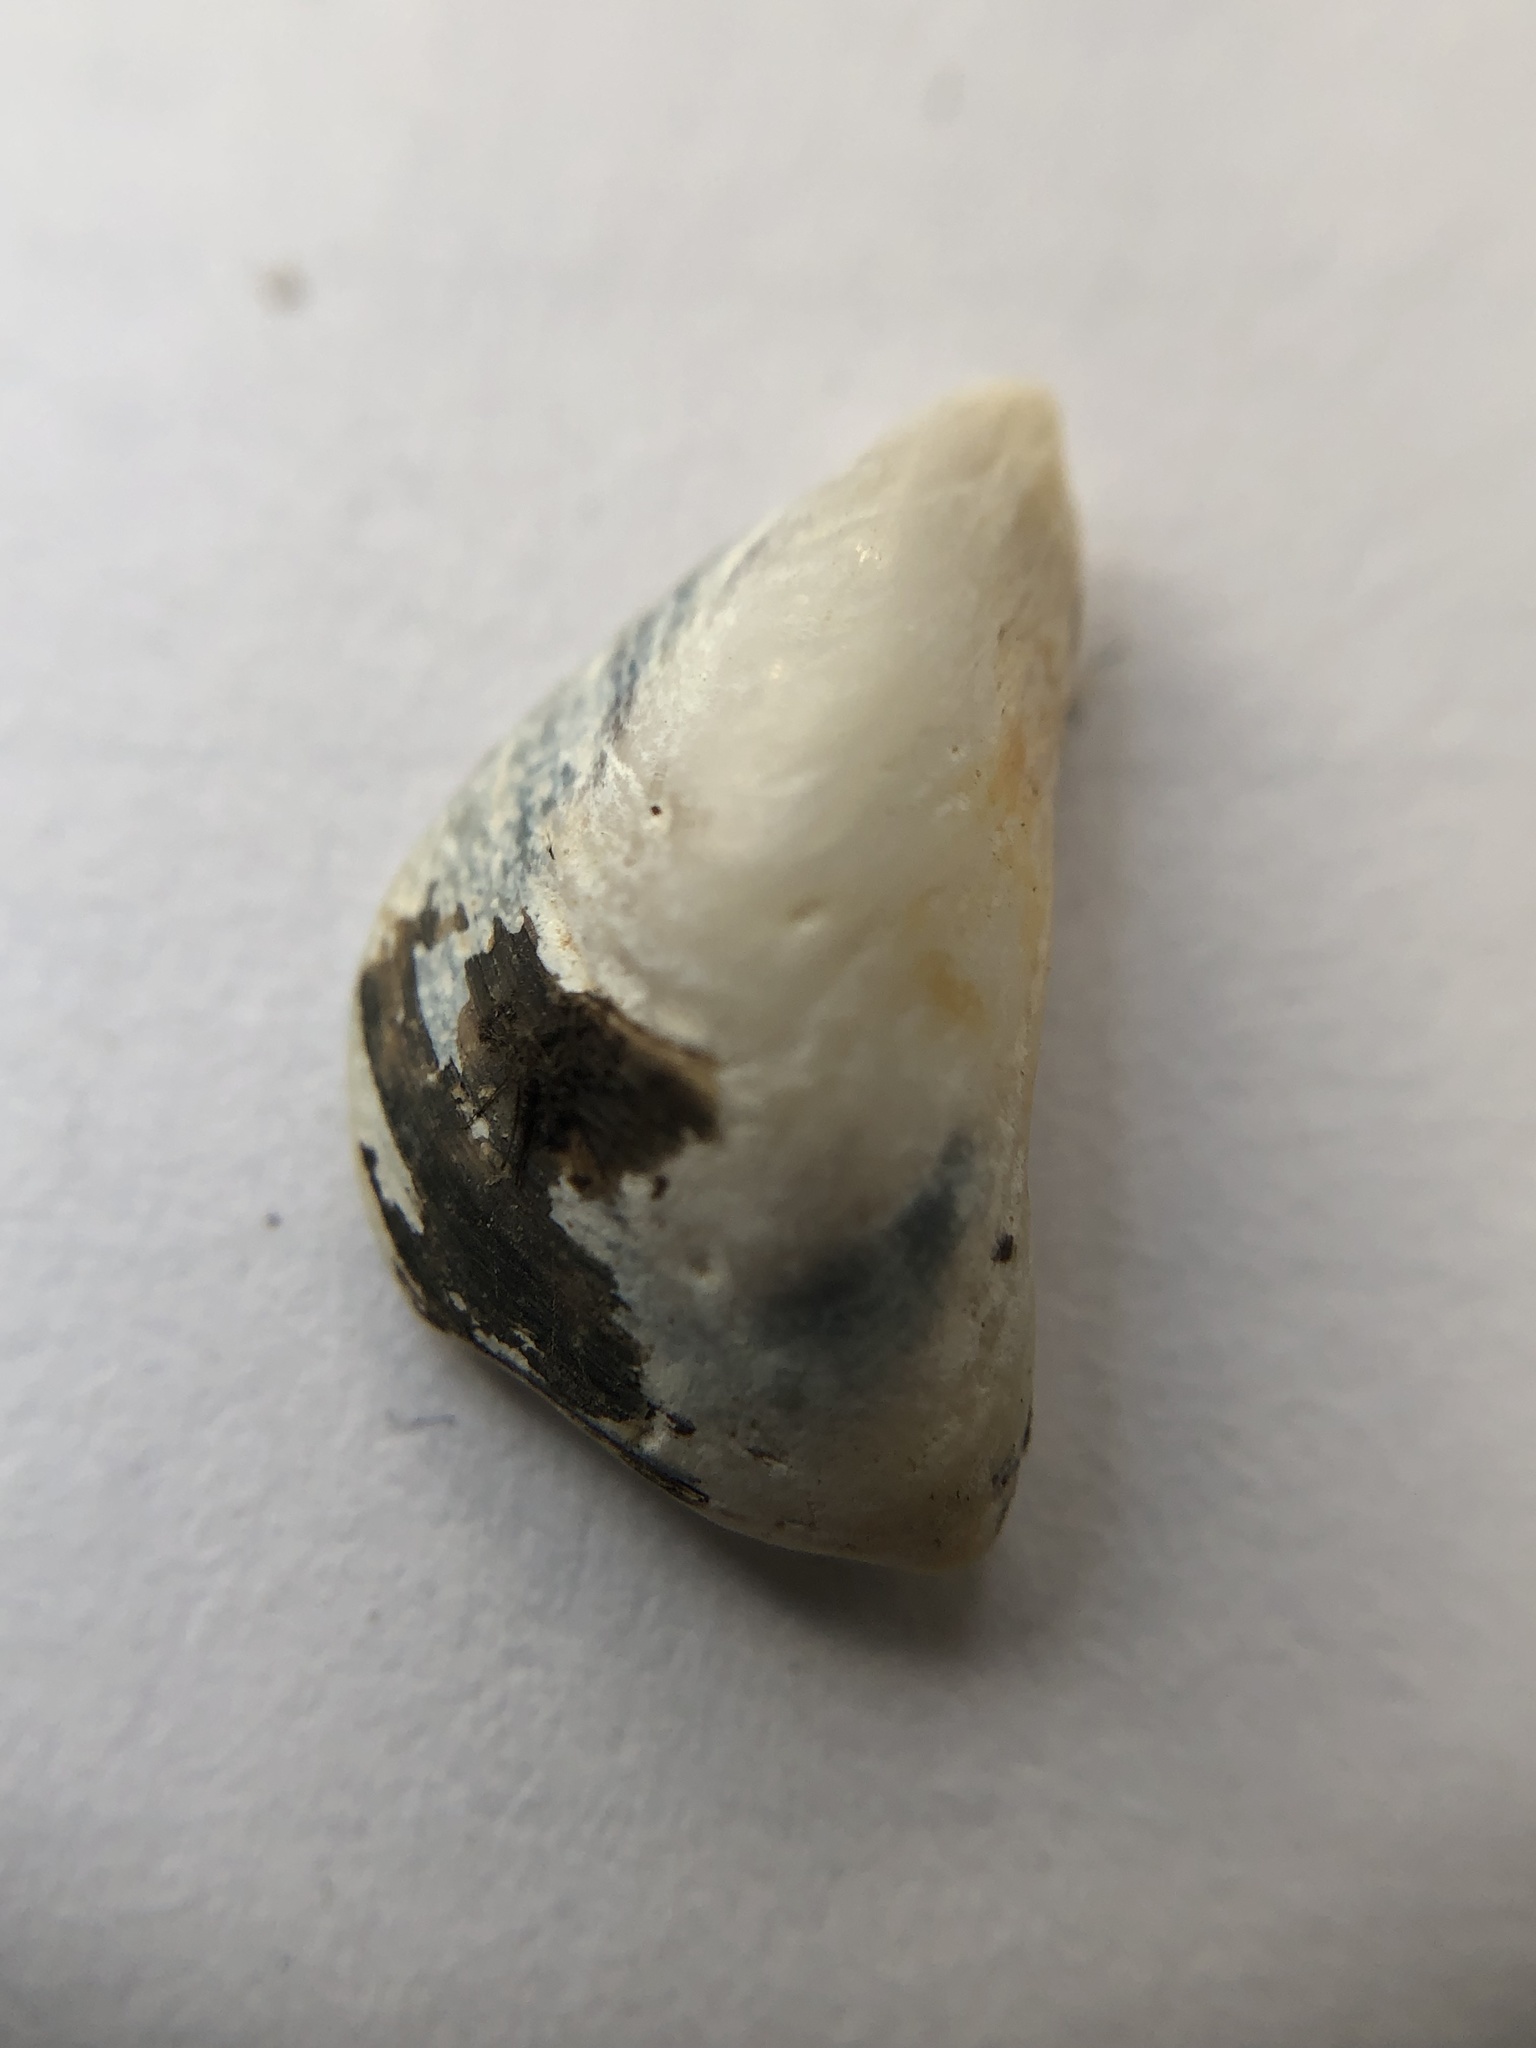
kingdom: Animalia
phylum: Mollusca
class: Bivalvia
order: Myida
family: Dreissenidae
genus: Dreissena
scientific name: Dreissena bugensis
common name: Quagga mussel
